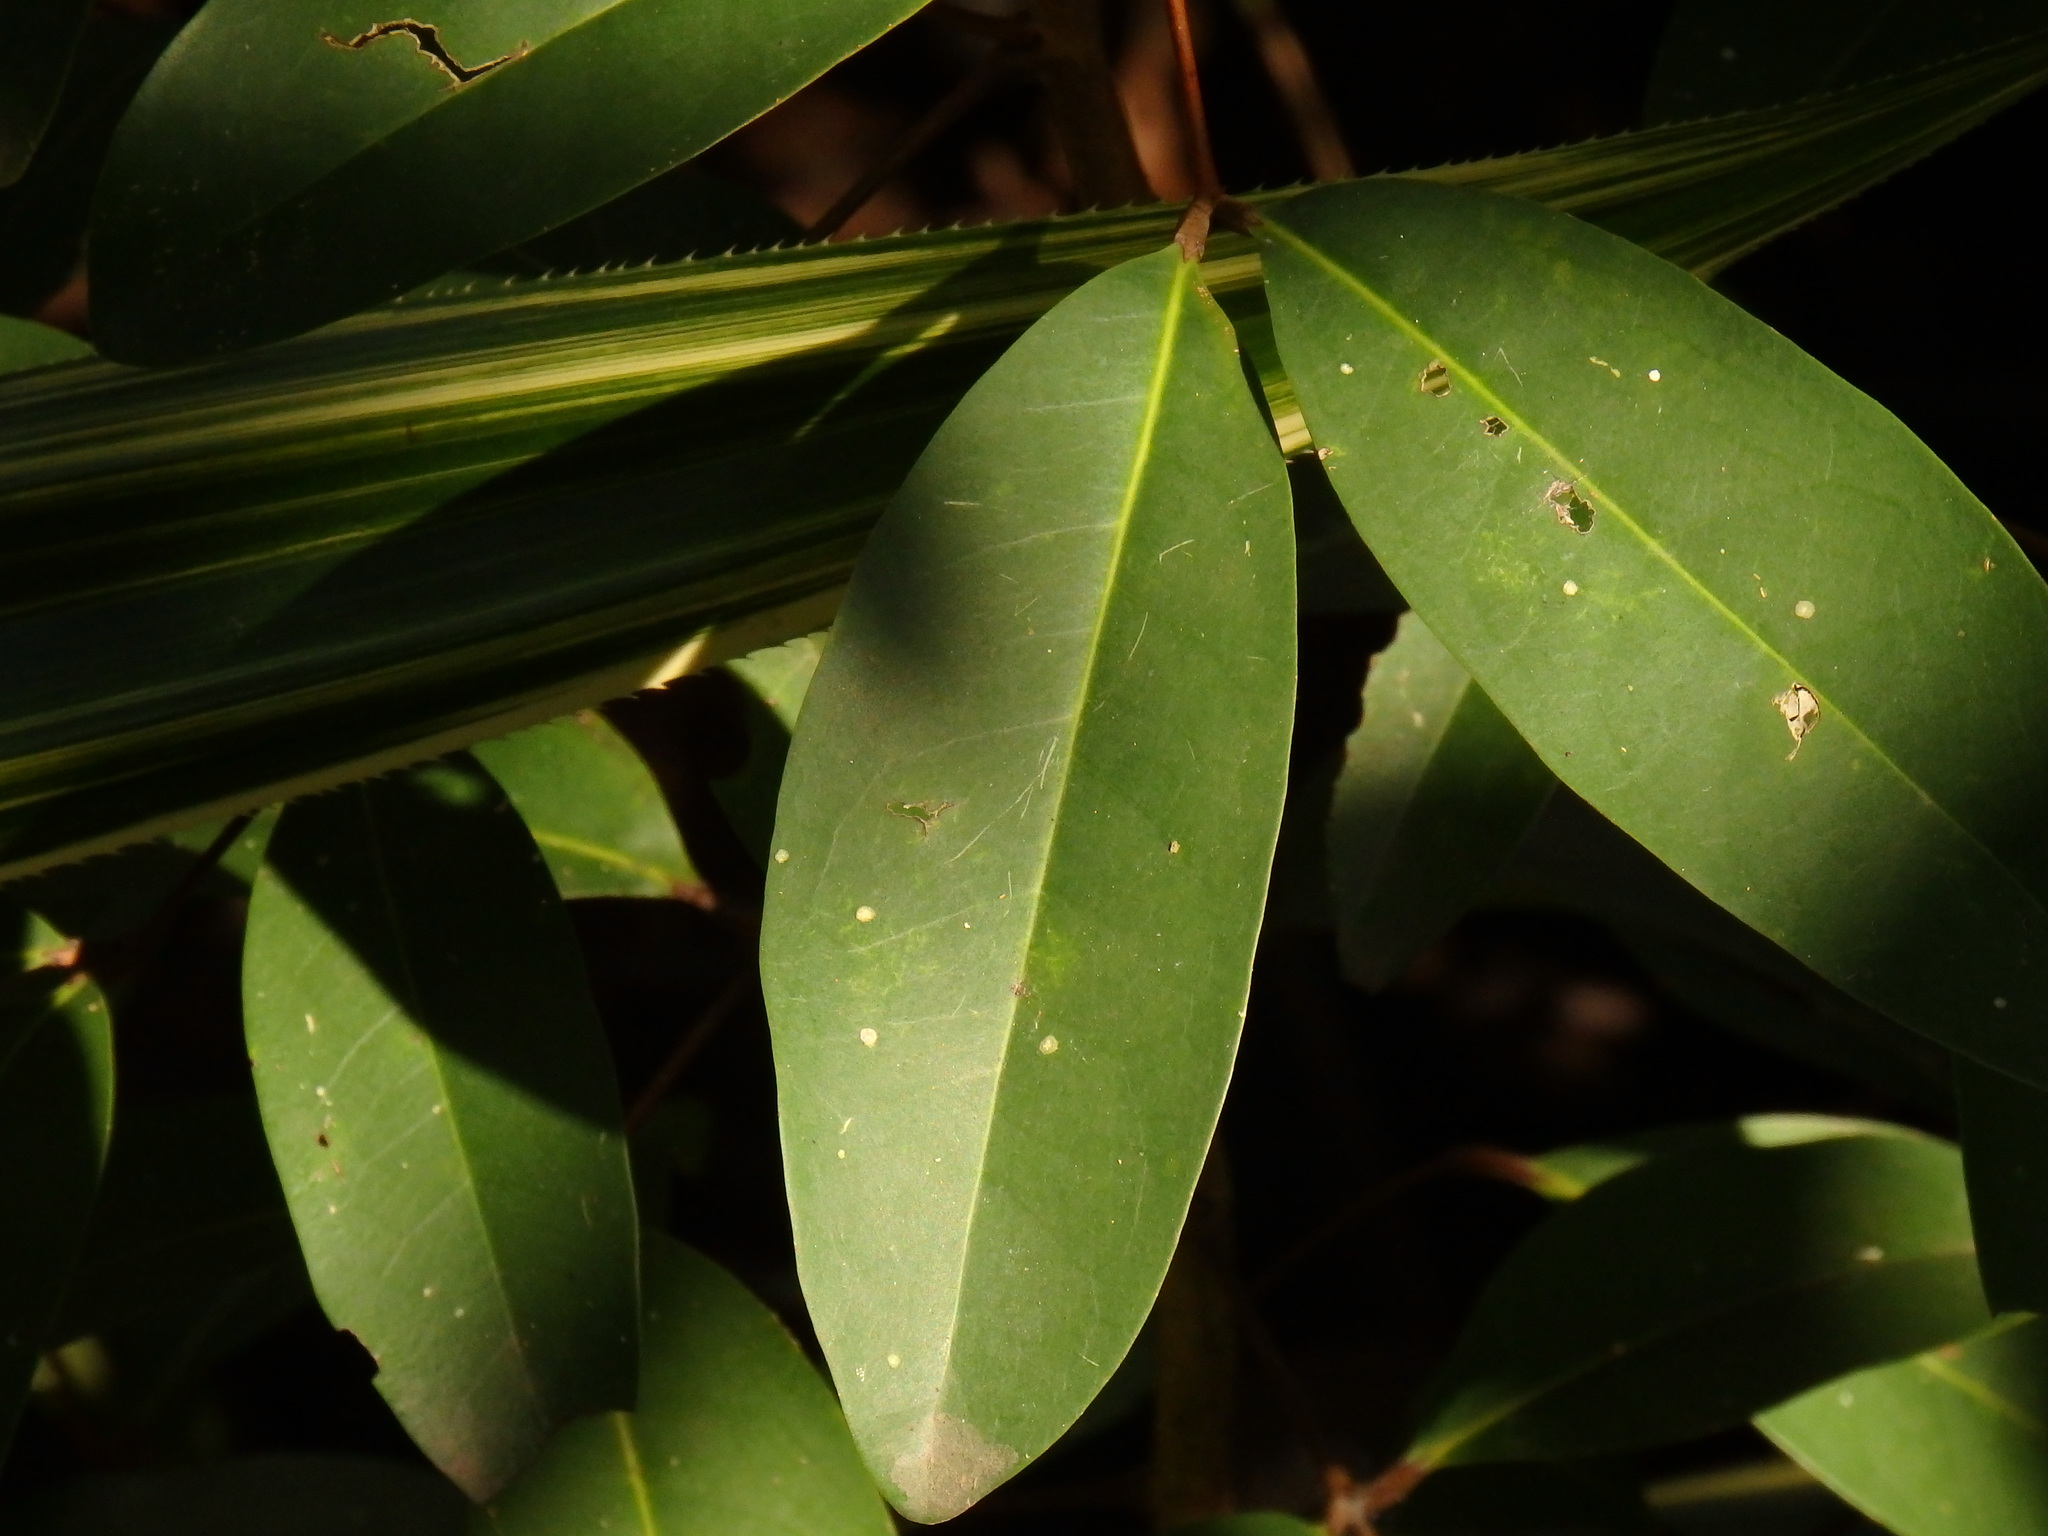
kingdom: Plantae
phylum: Tracheophyta
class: Magnoliopsida
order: Ericales
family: Primulaceae
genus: Ardisia
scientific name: Ardisia elliptica
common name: Shoebutton
